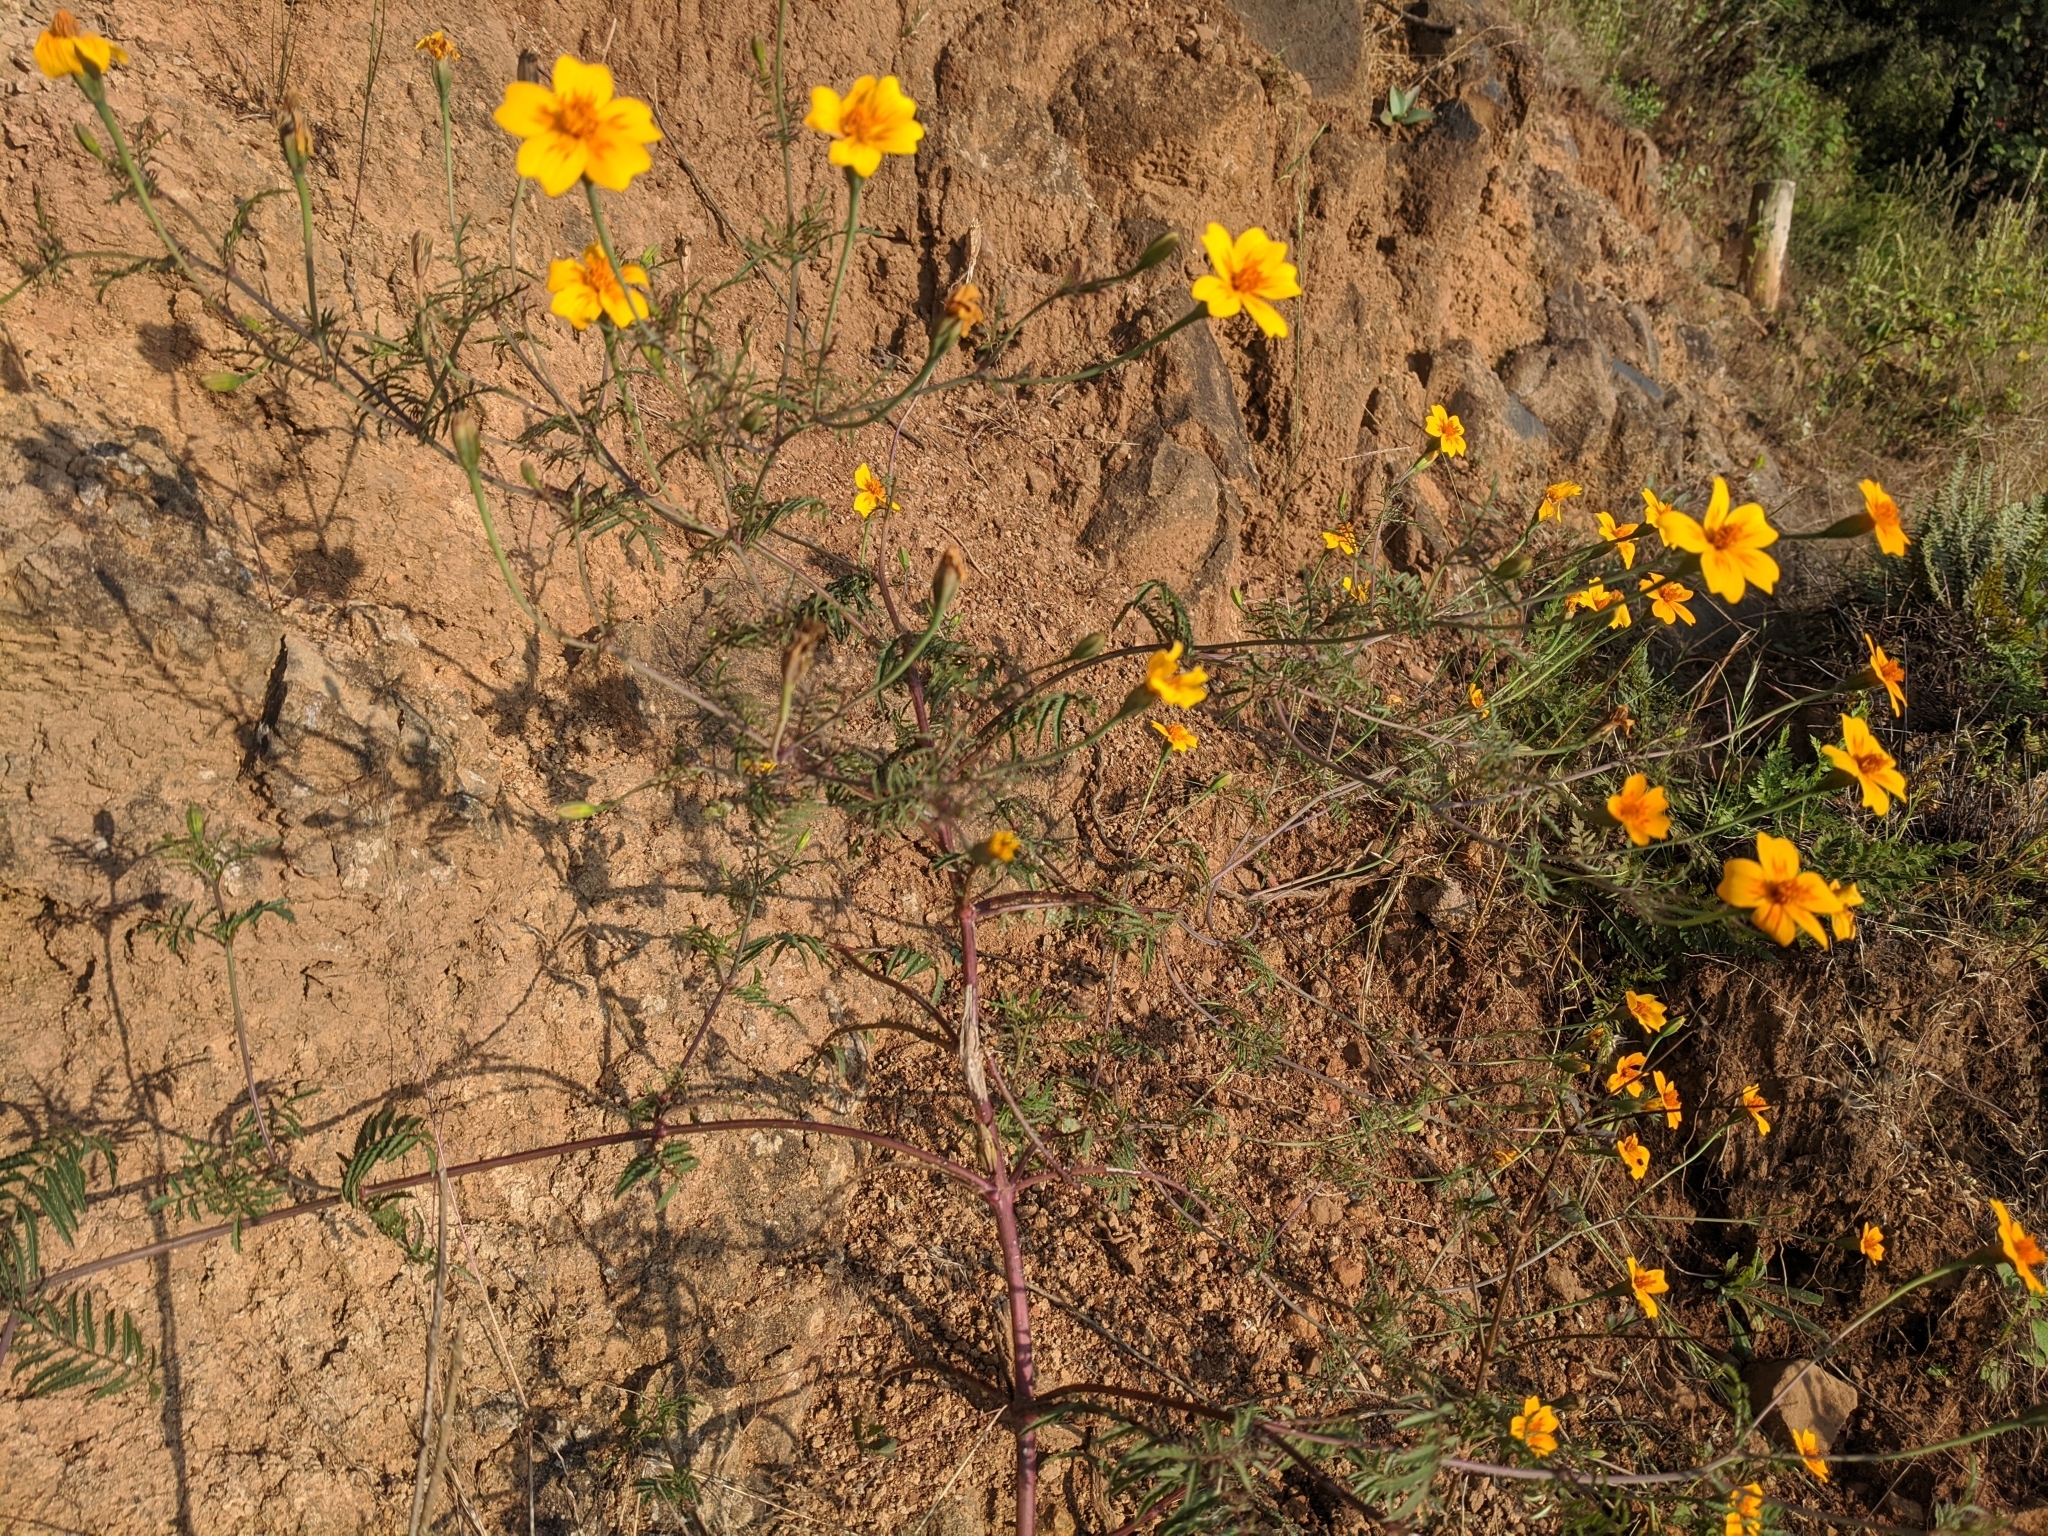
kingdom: Plantae
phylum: Tracheophyta
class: Magnoliopsida
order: Asterales
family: Asteraceae
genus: Tagetes
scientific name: Tagetes lunulata
